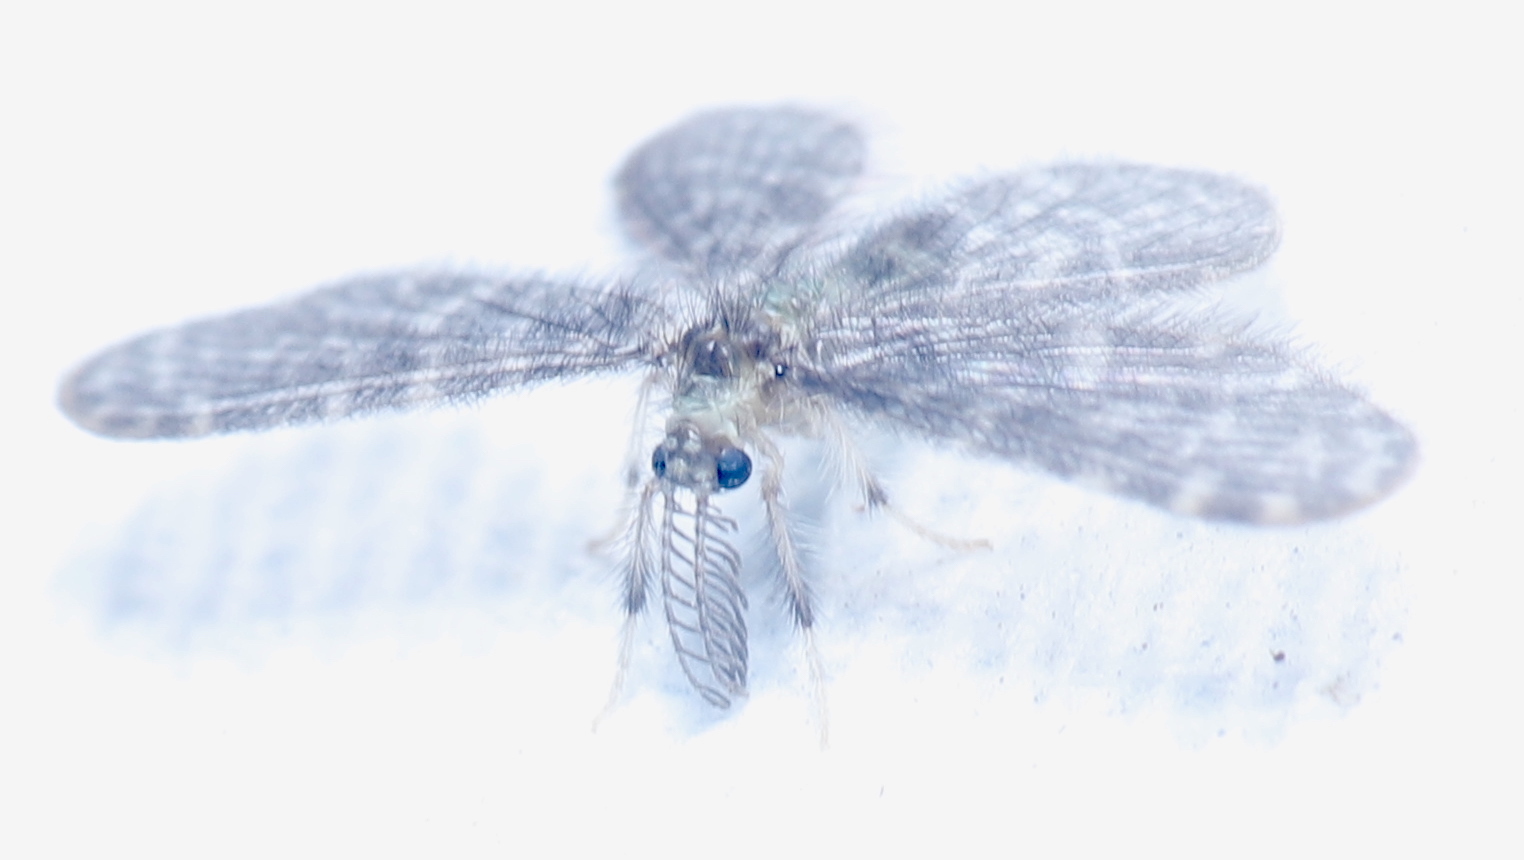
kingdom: Animalia
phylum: Arthropoda
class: Insecta
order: Neuroptera
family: Dilaridae
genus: Nallachius
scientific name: Nallachius americanus
